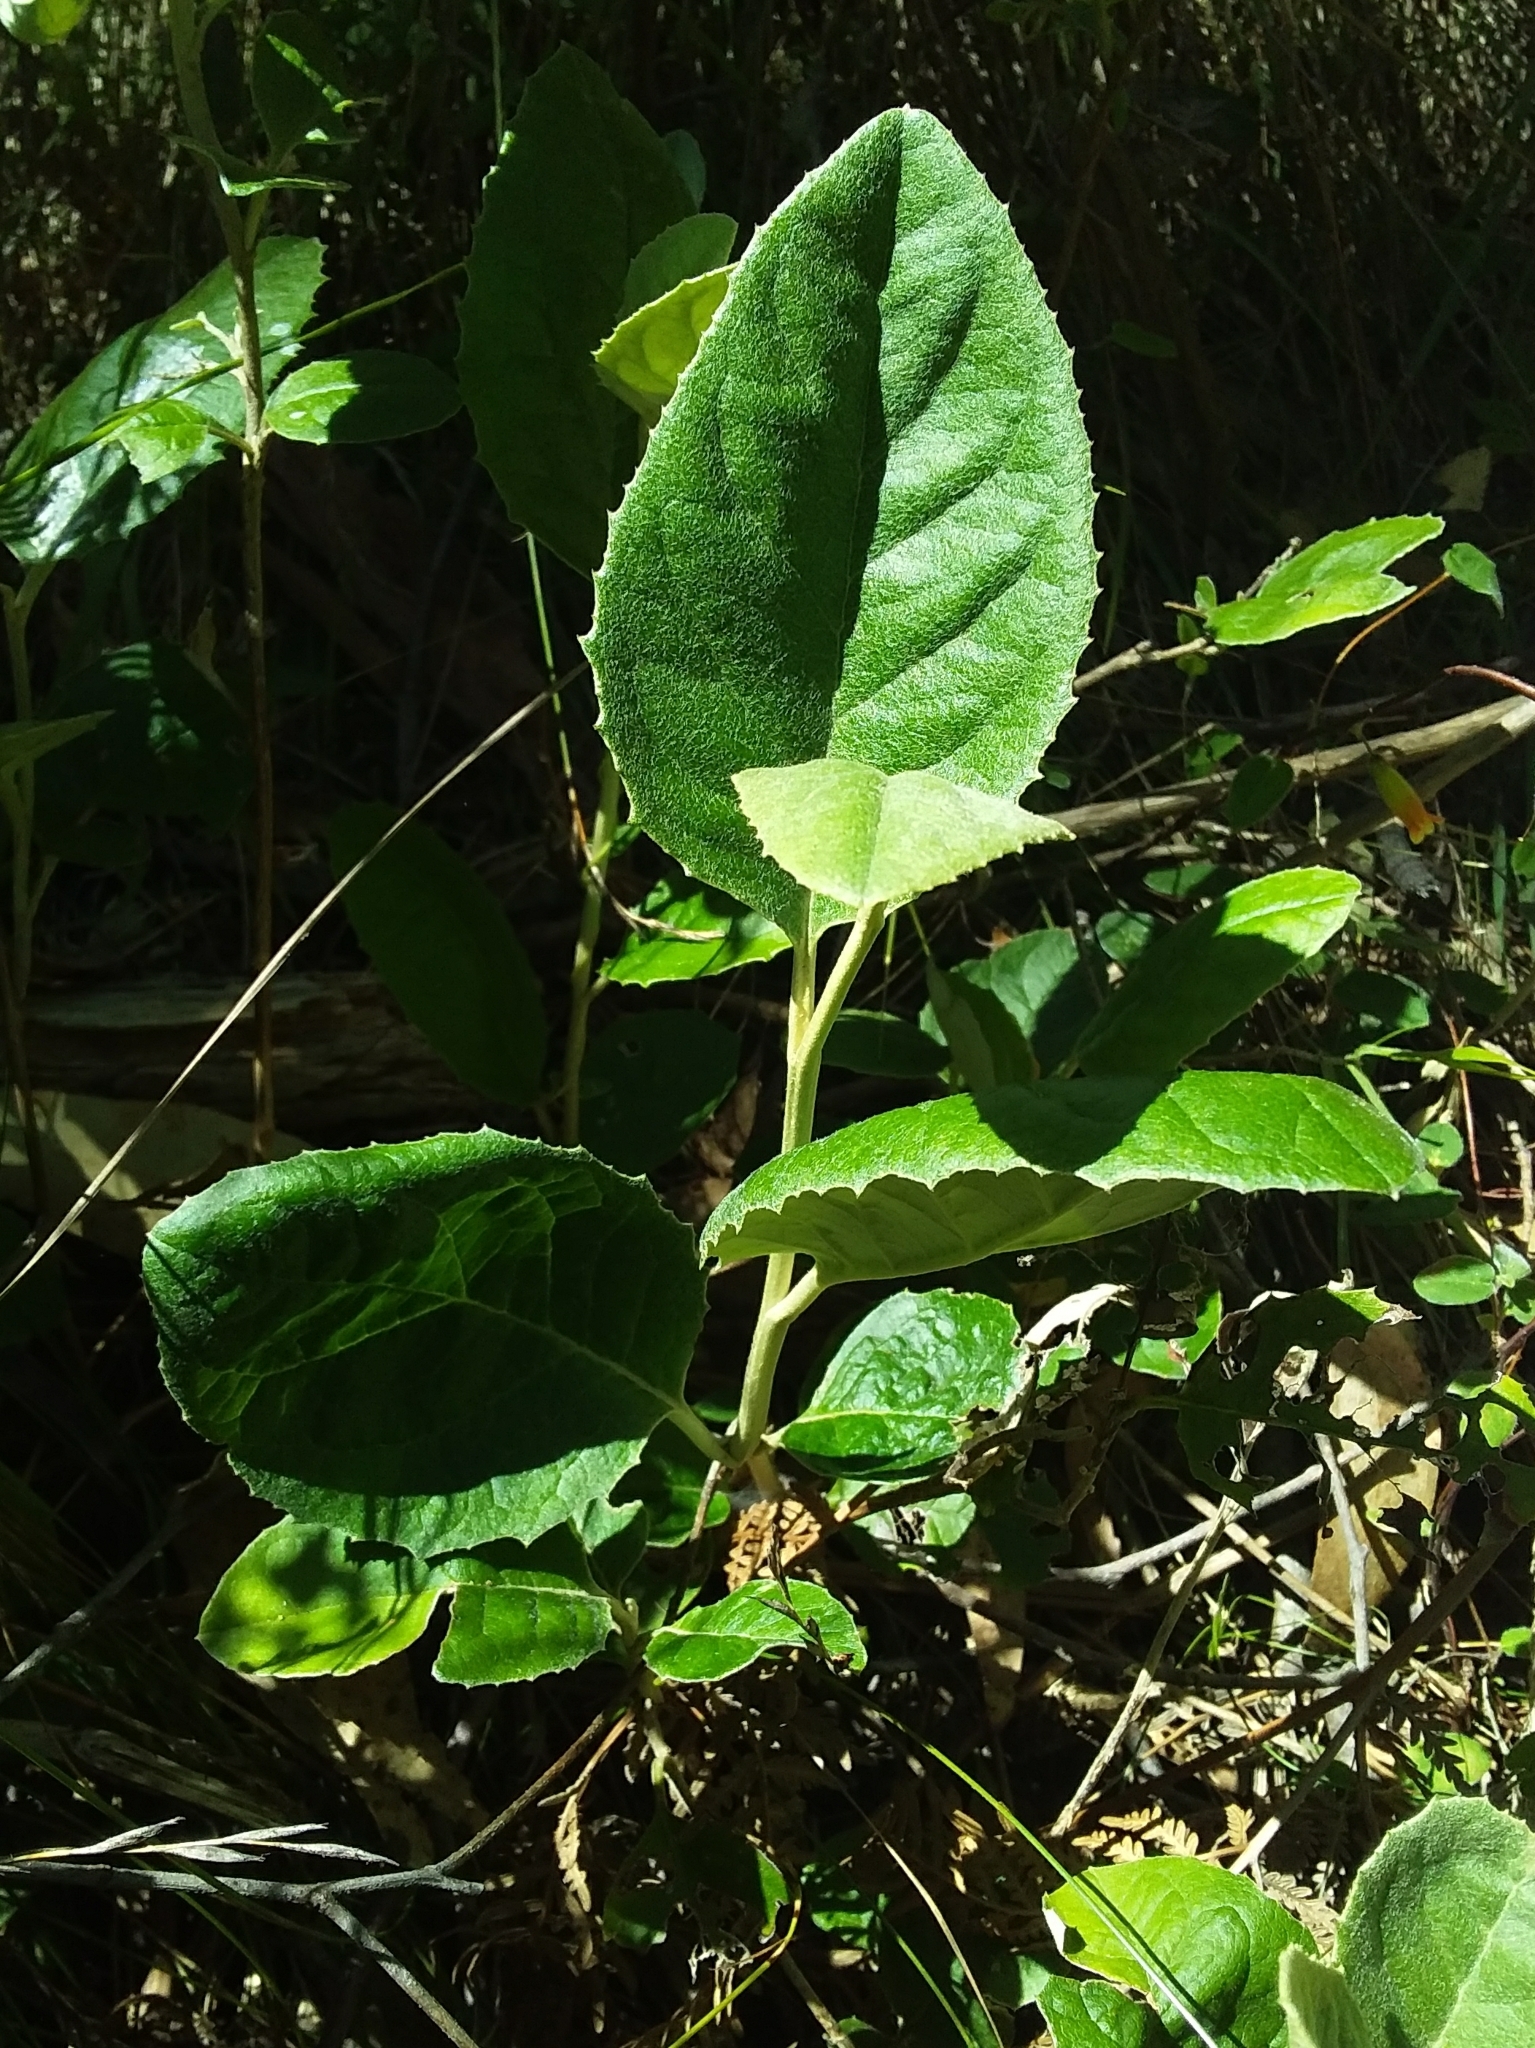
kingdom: Plantae
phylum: Tracheophyta
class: Magnoliopsida
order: Asterales
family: Asteraceae
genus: Olearia
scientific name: Olearia grandiflora
